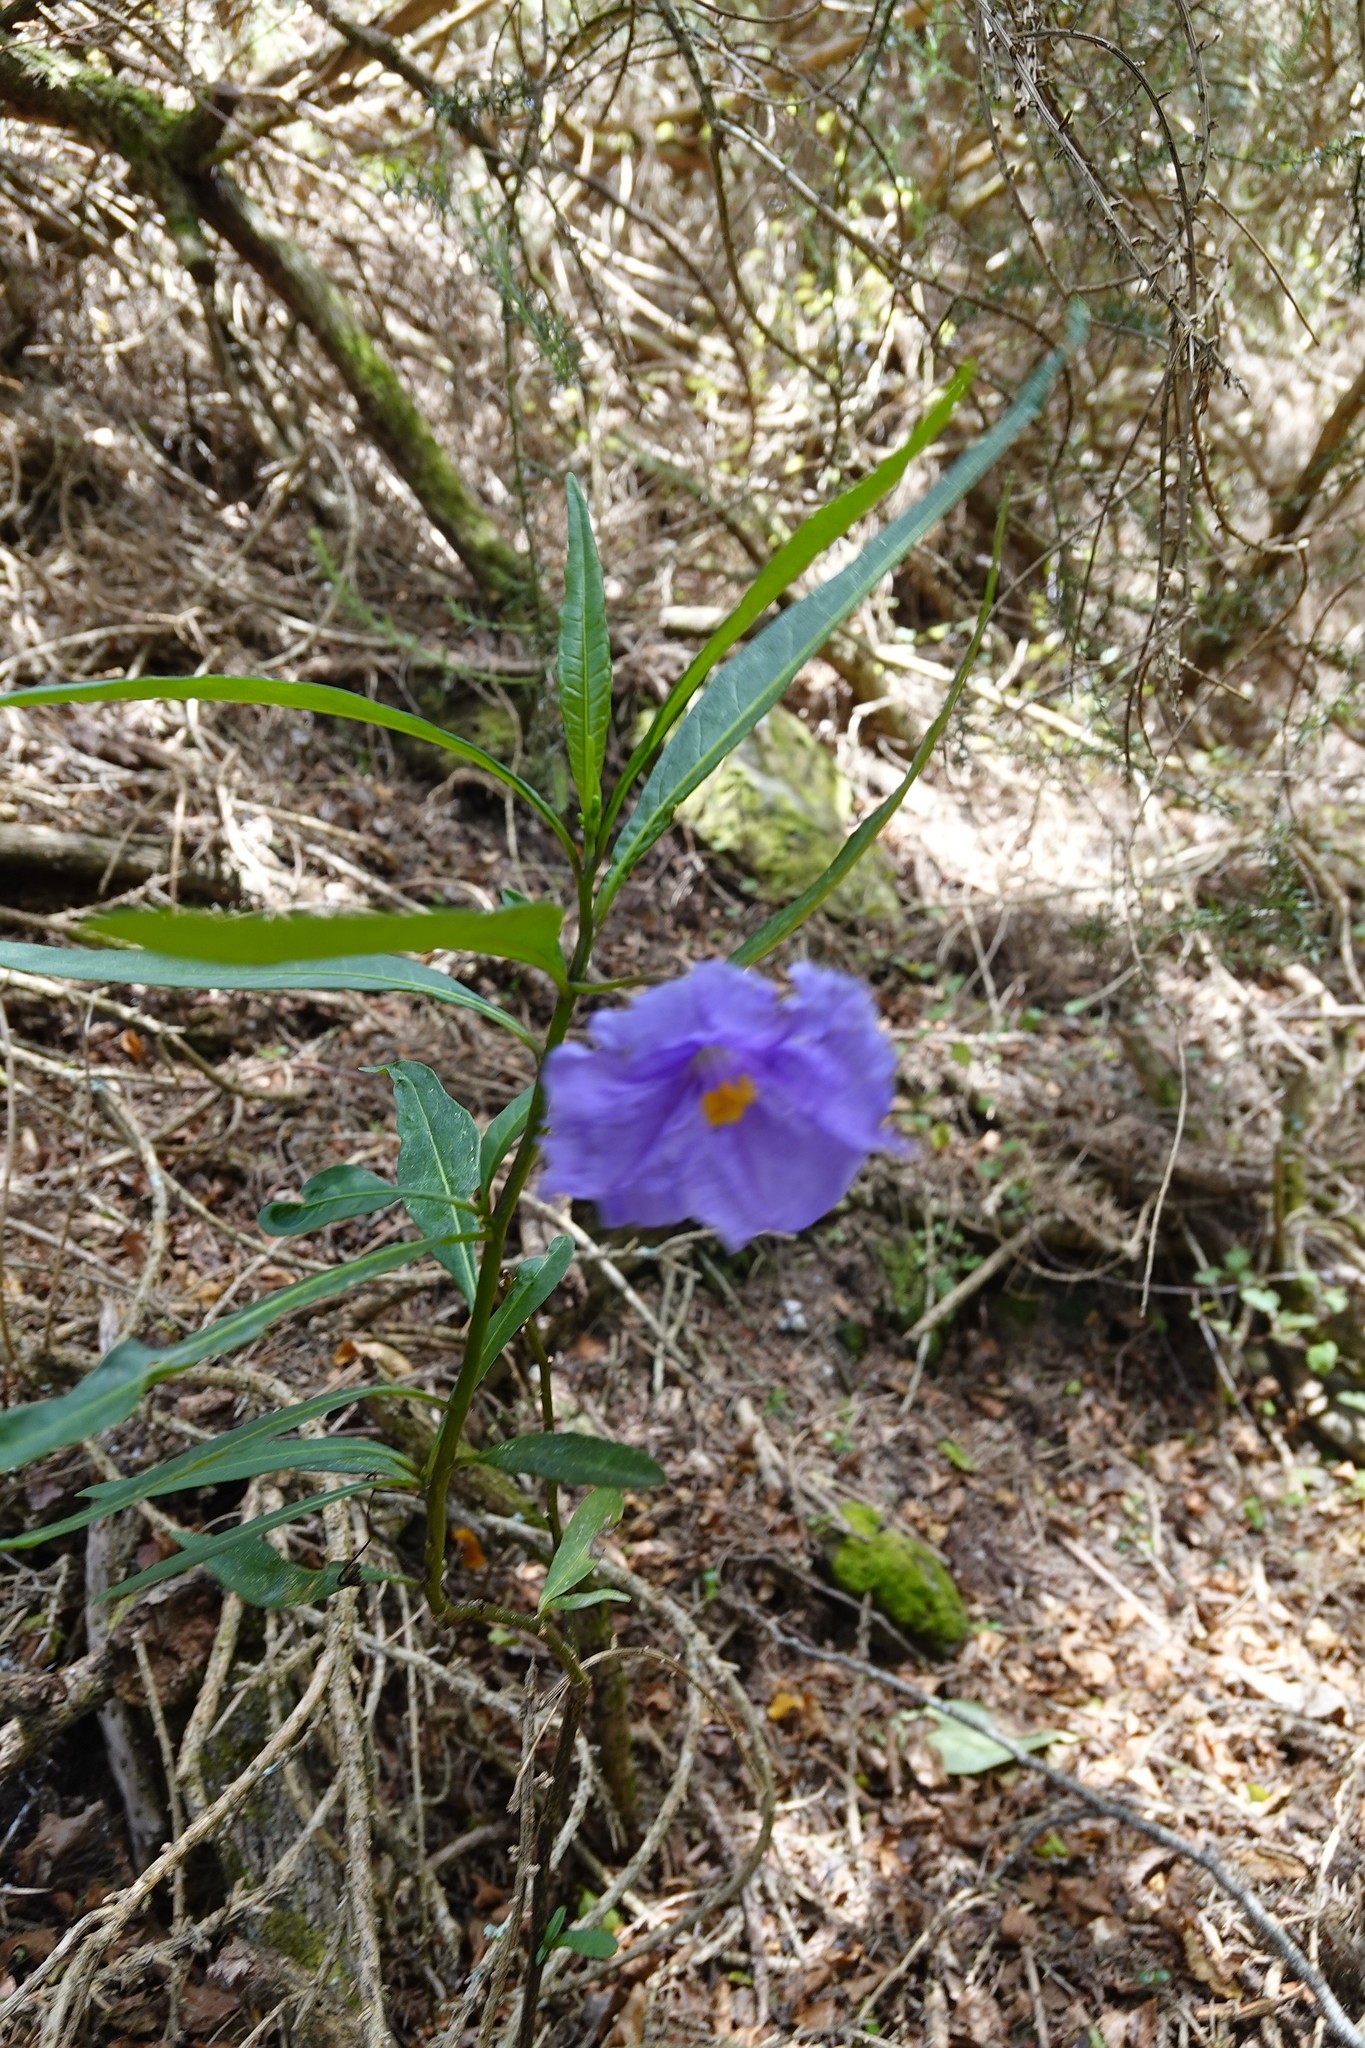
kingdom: Plantae
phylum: Tracheophyta
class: Magnoliopsida
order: Solanales
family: Solanaceae
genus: Solanum
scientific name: Solanum laciniatum
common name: Kangaroo-apple
